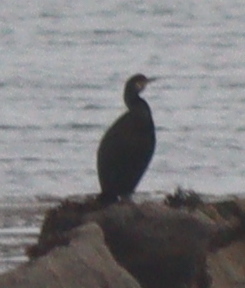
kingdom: Animalia
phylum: Chordata
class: Aves
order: Suliformes
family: Phalacrocoracidae
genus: Phalacrocorax
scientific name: Phalacrocorax aristotelis
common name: European shag
